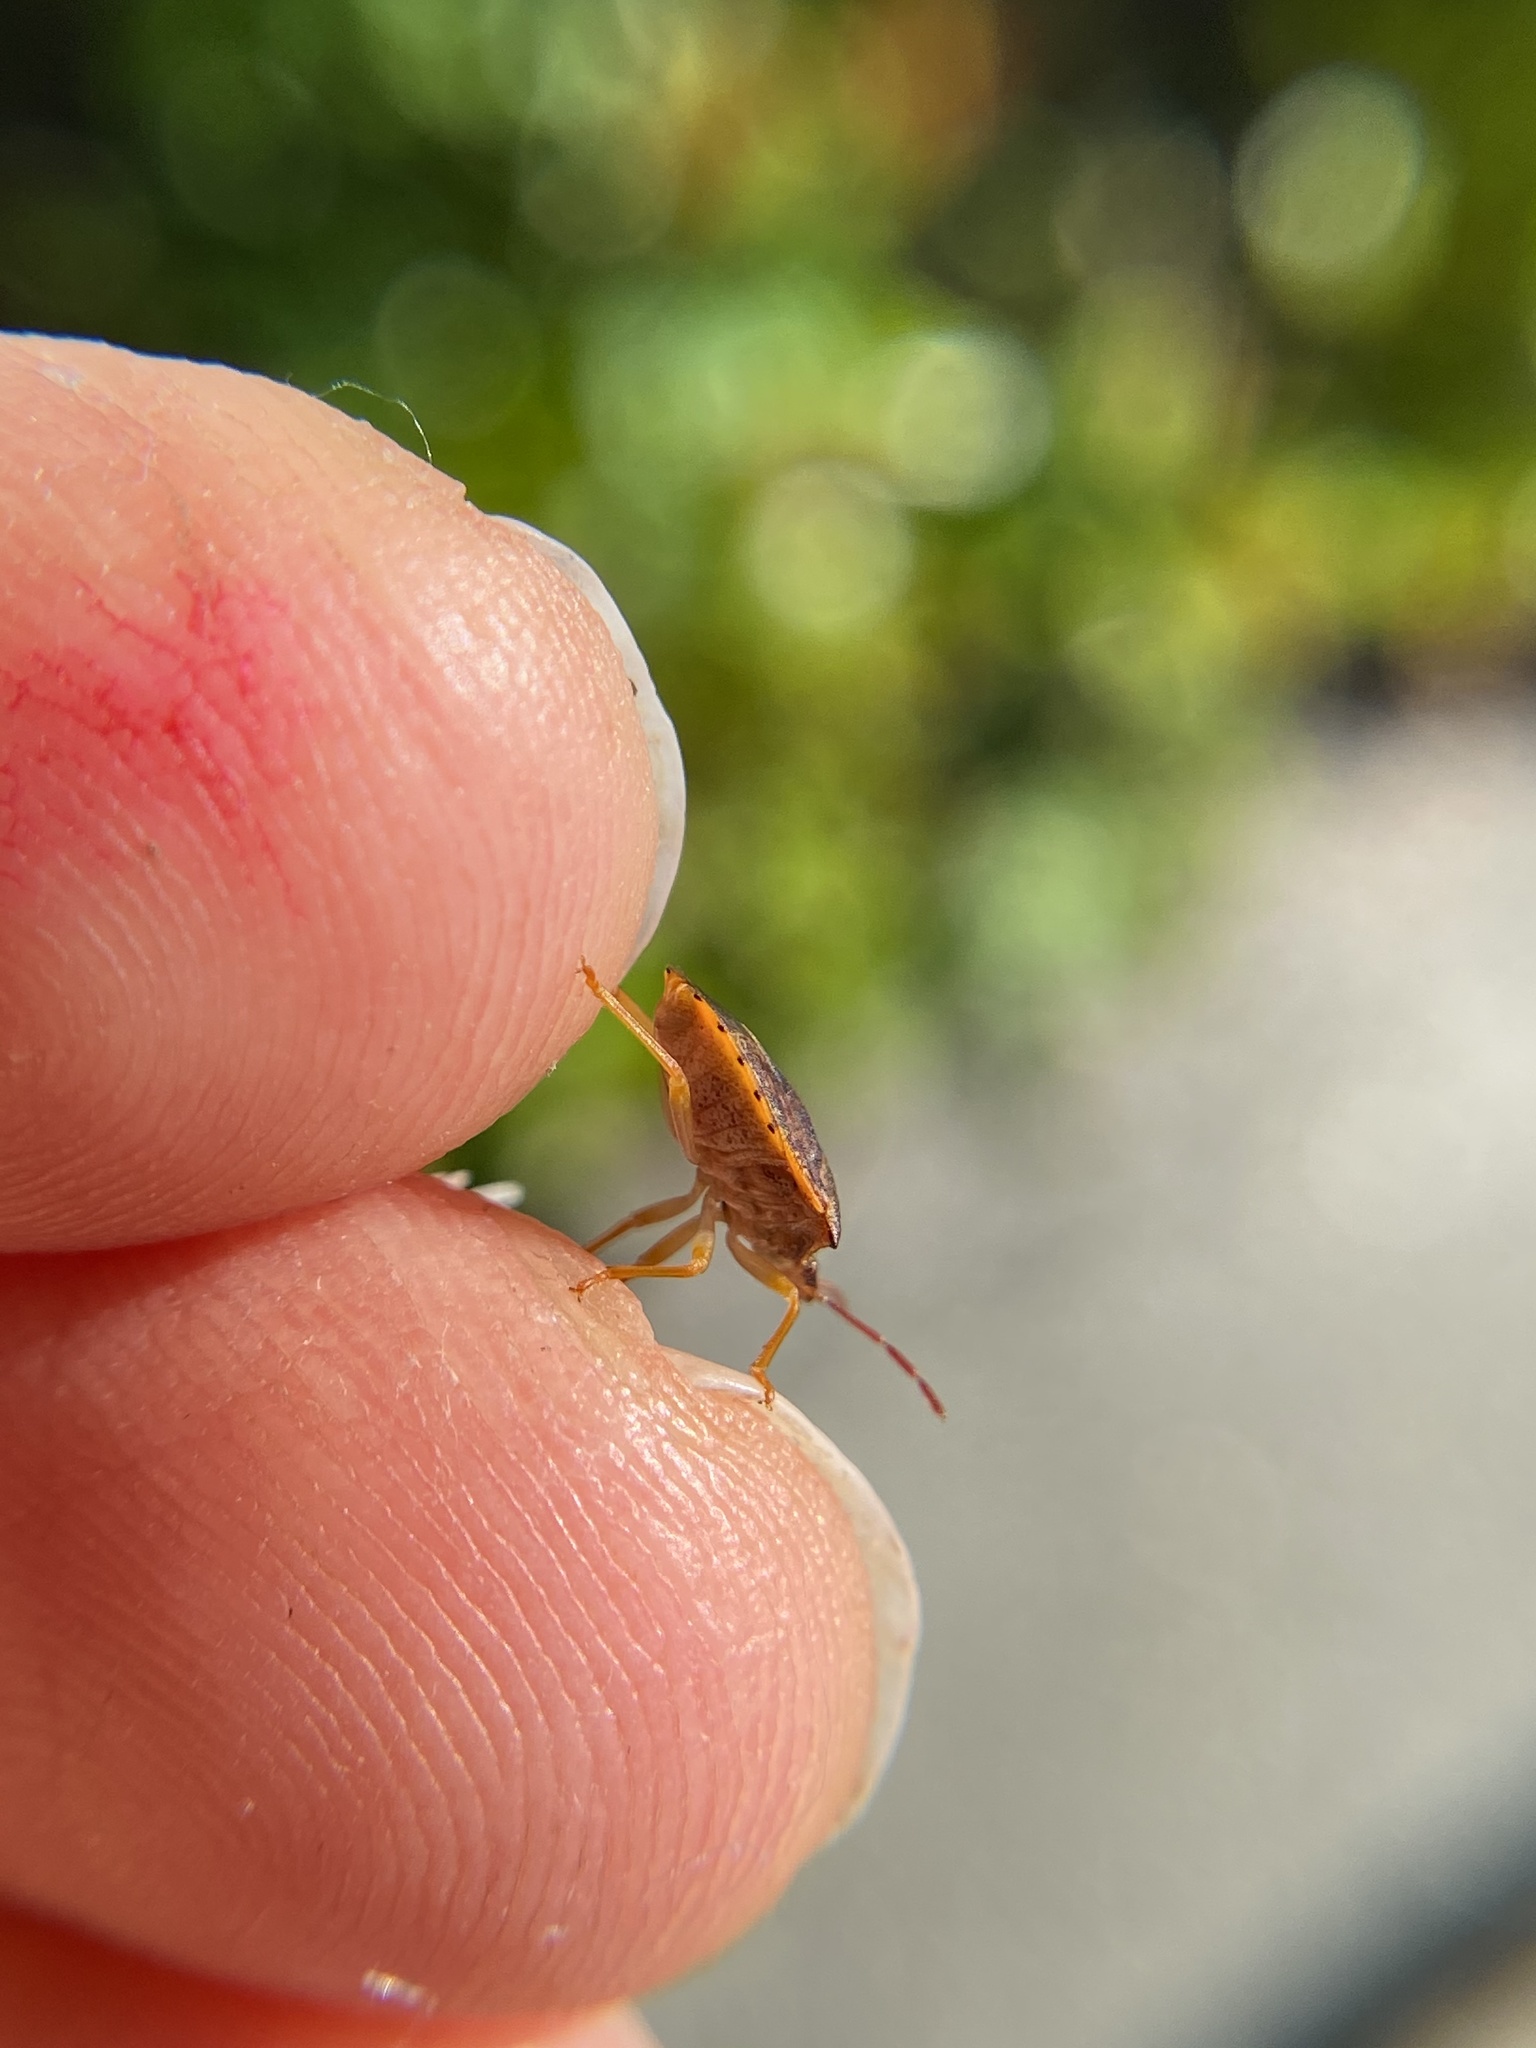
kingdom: Animalia
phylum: Arthropoda
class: Insecta
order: Hemiptera
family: Pentatomidae
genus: Dendrocoris
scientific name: Dendrocoris humeralis
